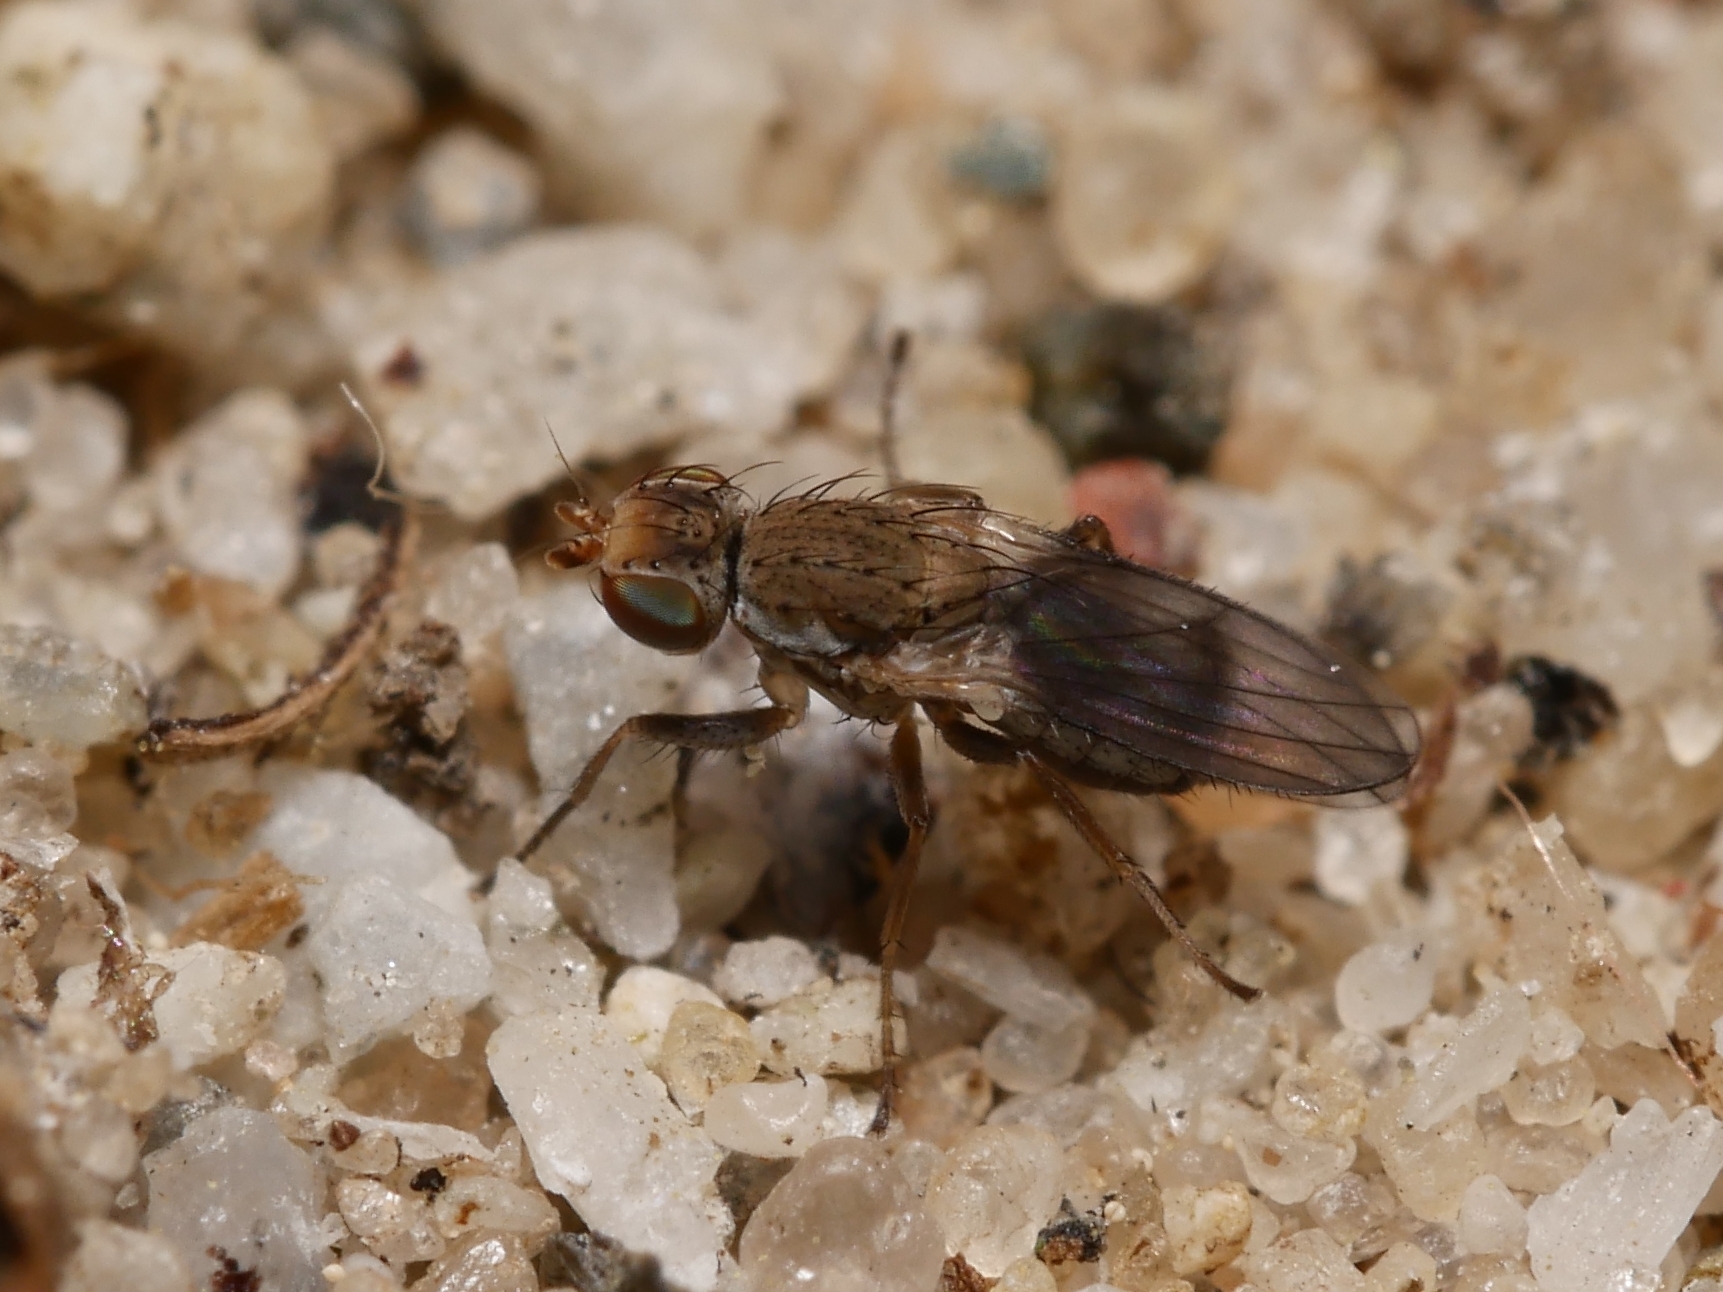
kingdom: Animalia
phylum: Arthropoda
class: Insecta
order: Diptera
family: Heleomyzidae
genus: Trixoscelis
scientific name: Trixoscelis obscurella
